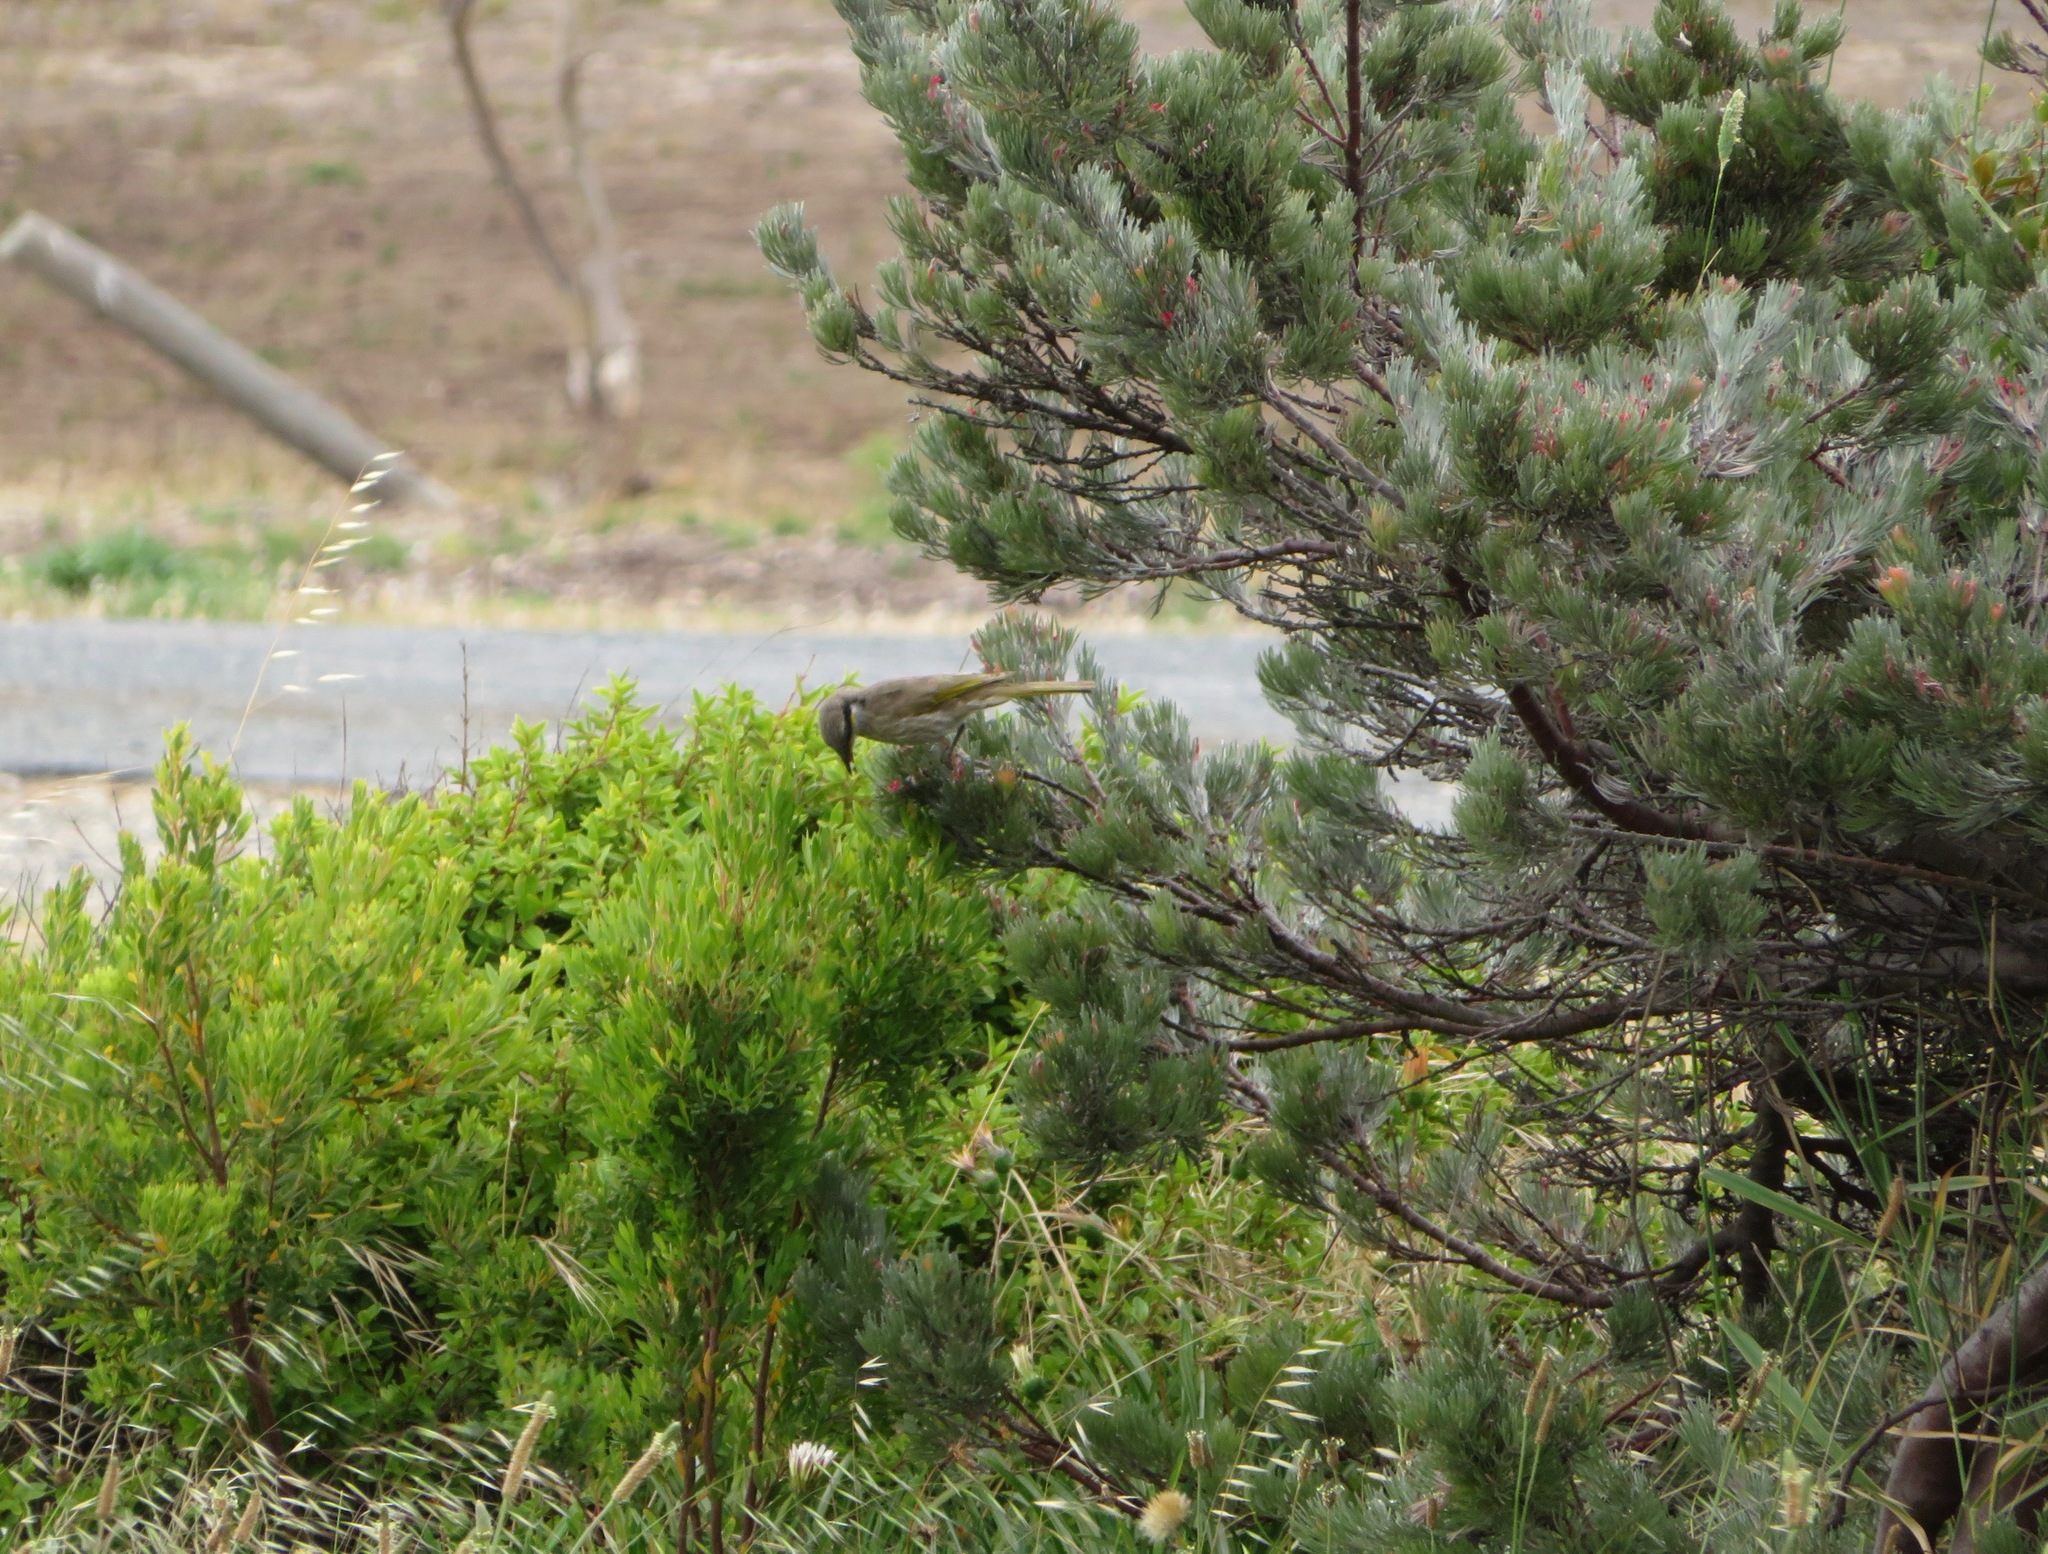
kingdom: Animalia
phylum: Chordata
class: Aves
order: Passeriformes
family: Meliphagidae
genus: Gavicalis
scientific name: Gavicalis virescens
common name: Singing honeyeater
